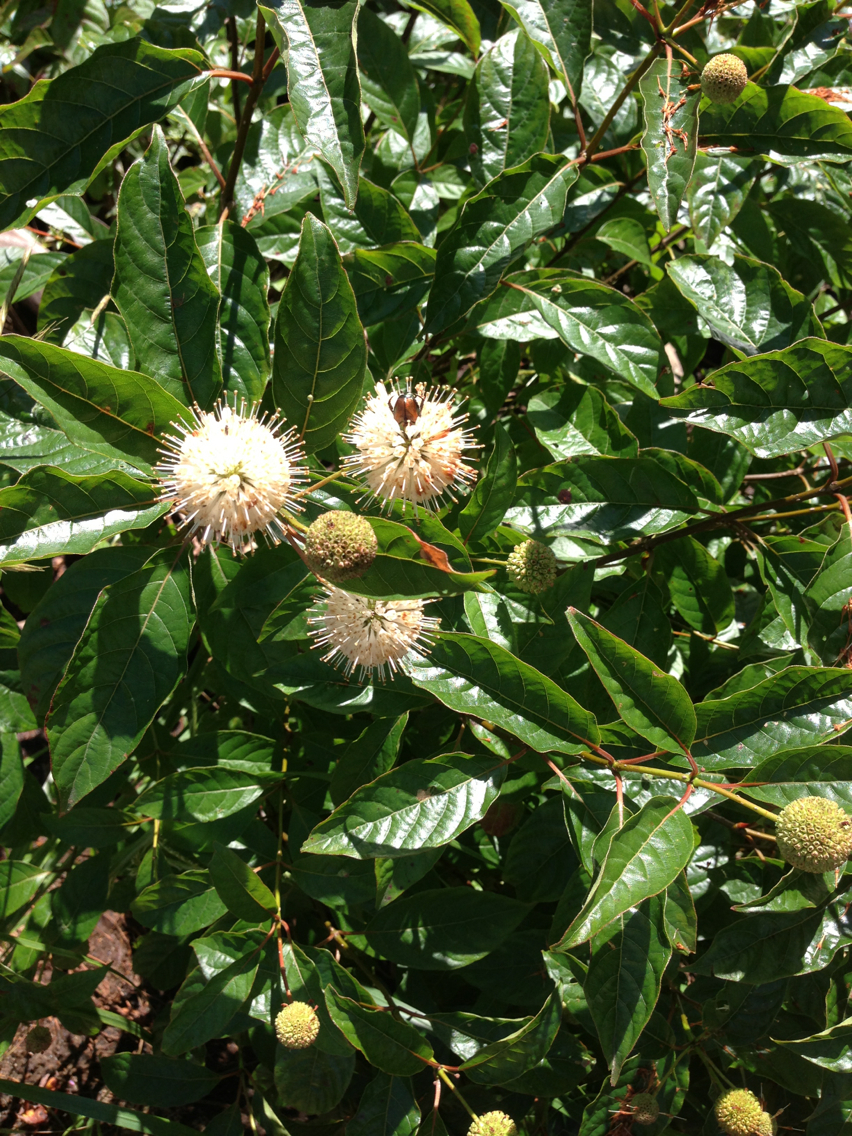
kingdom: Plantae
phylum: Tracheophyta
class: Magnoliopsida
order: Gentianales
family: Rubiaceae
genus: Cephalanthus
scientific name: Cephalanthus occidentalis
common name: Button-willow
